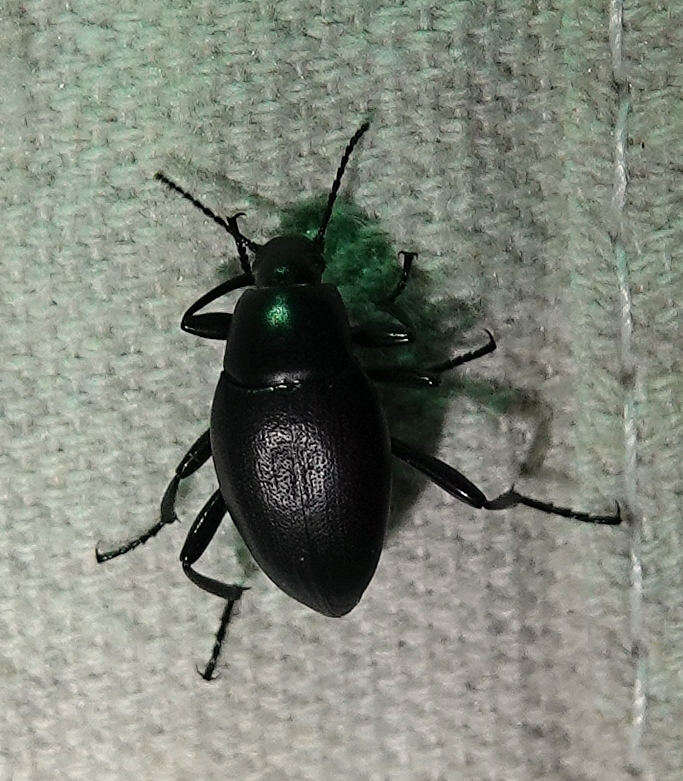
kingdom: Animalia
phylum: Arthropoda
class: Insecta
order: Coleoptera
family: Tenebrionidae
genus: Eleodes
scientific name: Eleodes fusiformis
